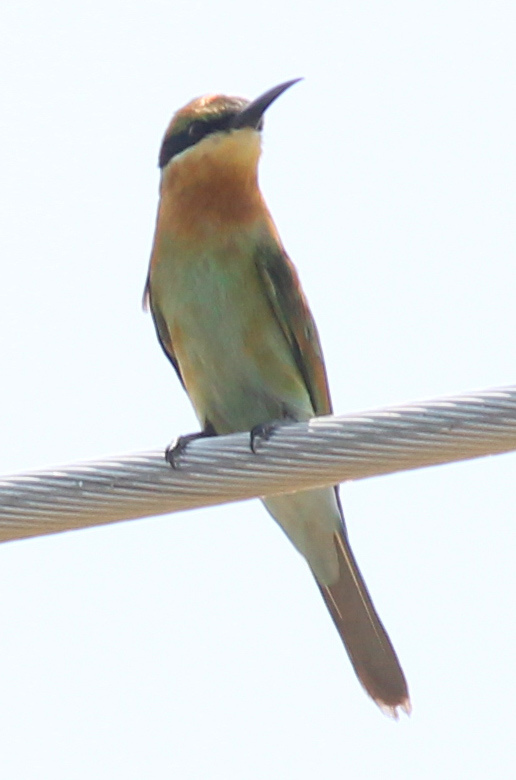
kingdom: Animalia
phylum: Chordata
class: Aves
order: Coraciiformes
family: Meropidae
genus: Merops
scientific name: Merops philippinus
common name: Blue-tailed bee-eater
